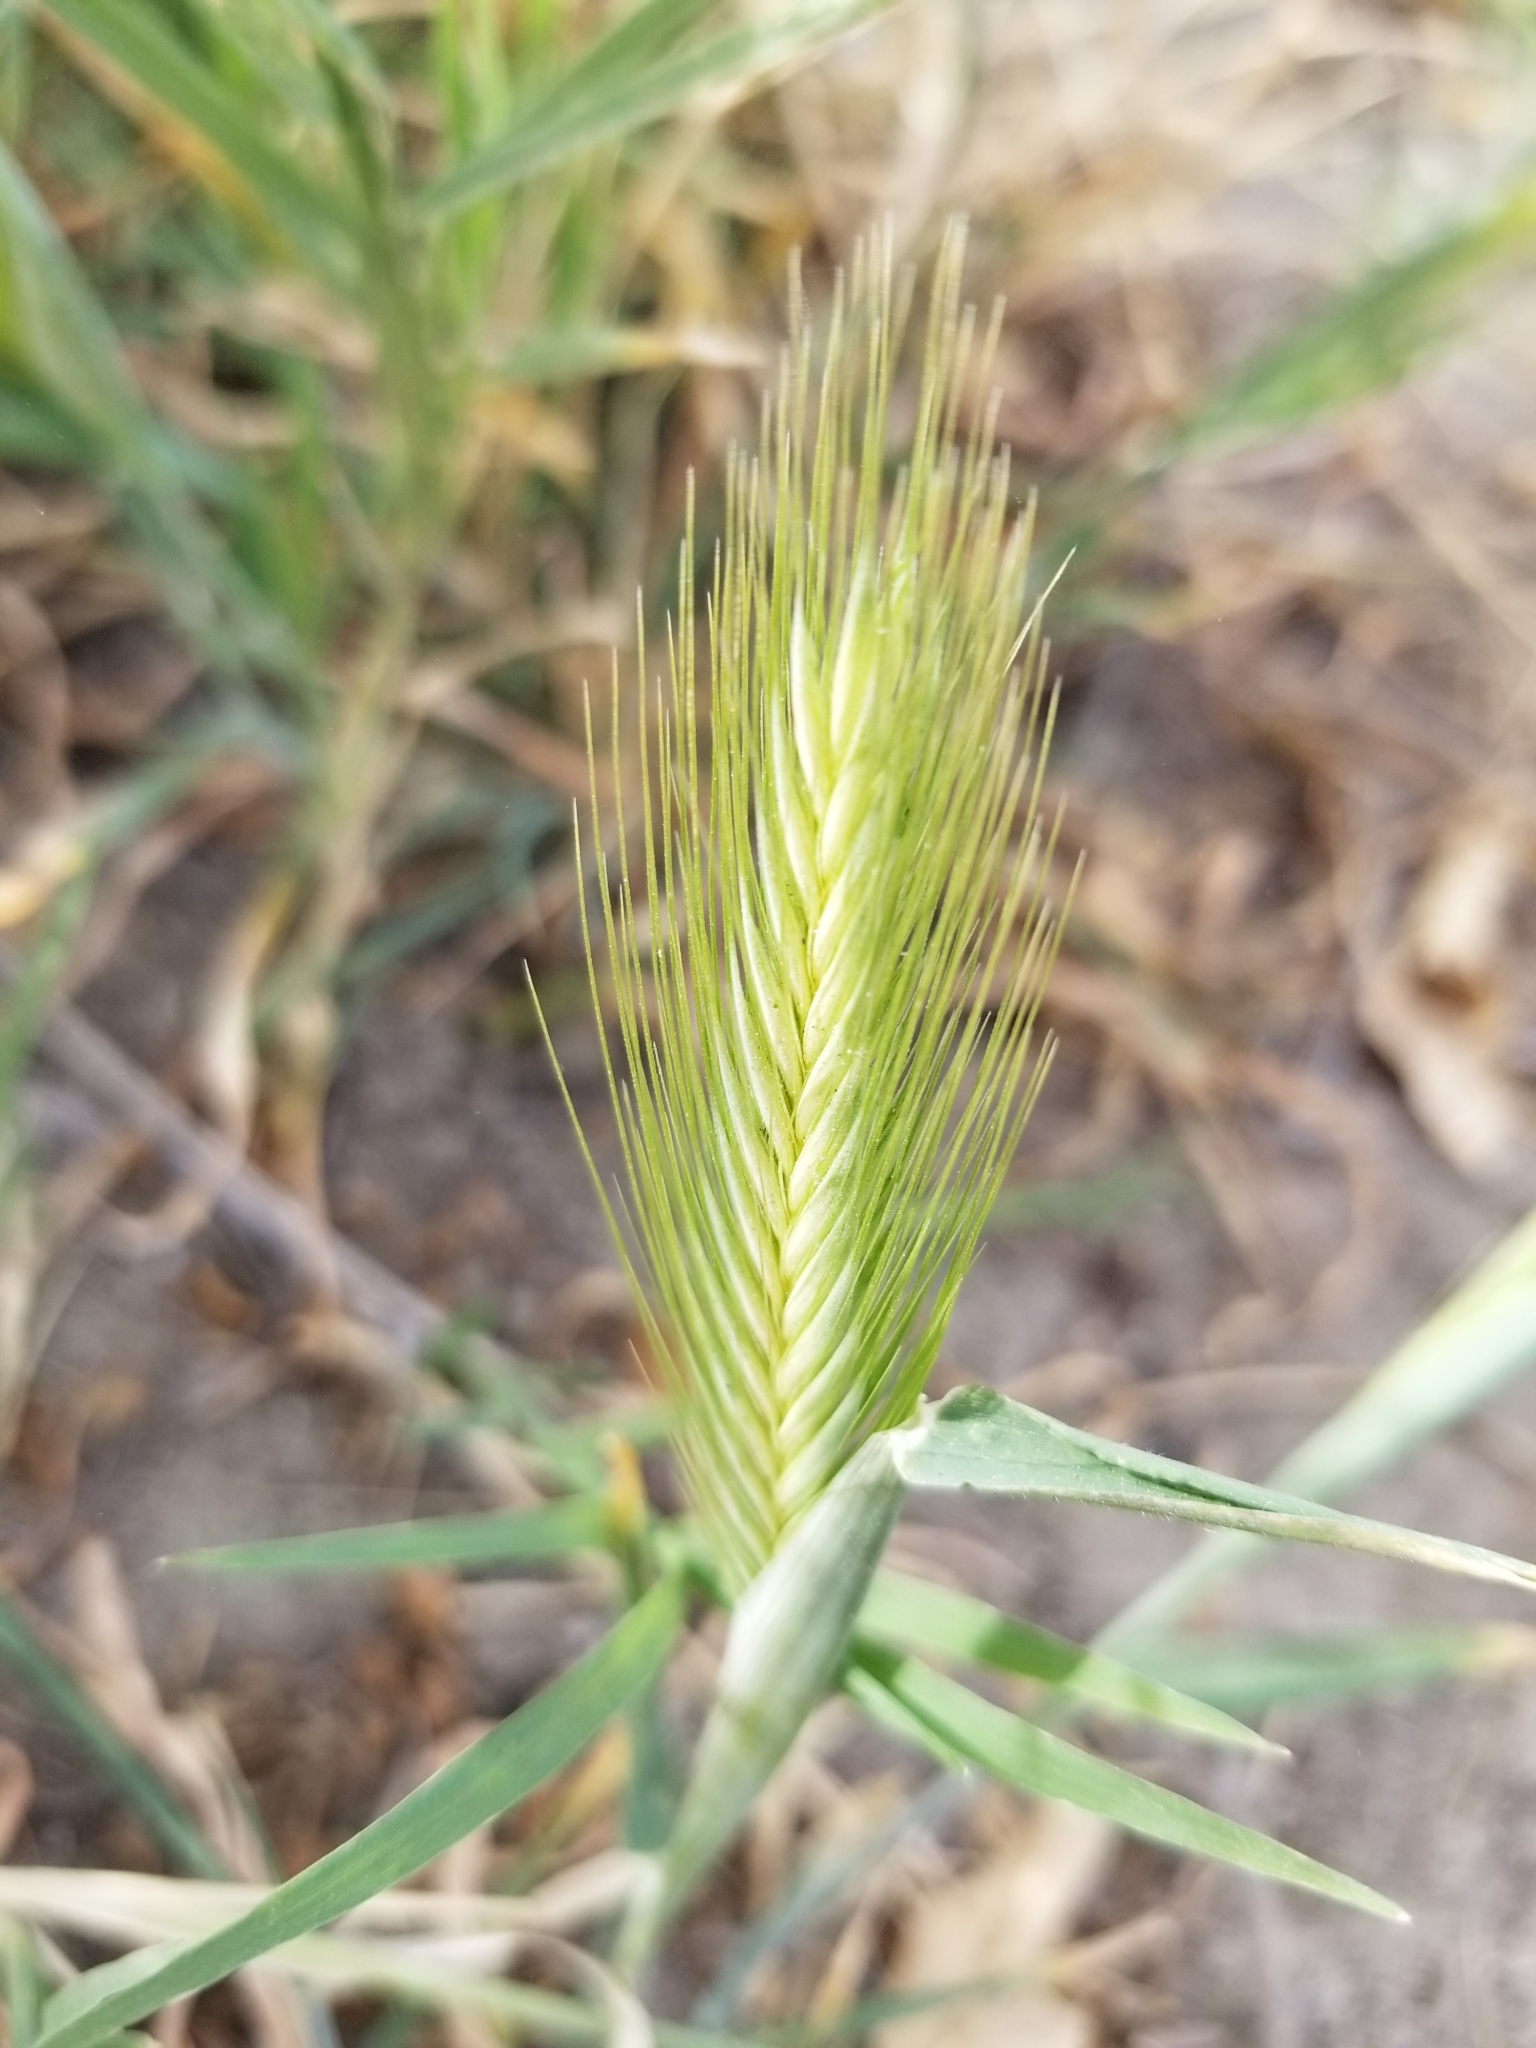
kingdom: Plantae
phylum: Tracheophyta
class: Liliopsida
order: Poales
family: Poaceae
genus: Hordeum
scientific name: Hordeum murinum
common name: Wall barley
